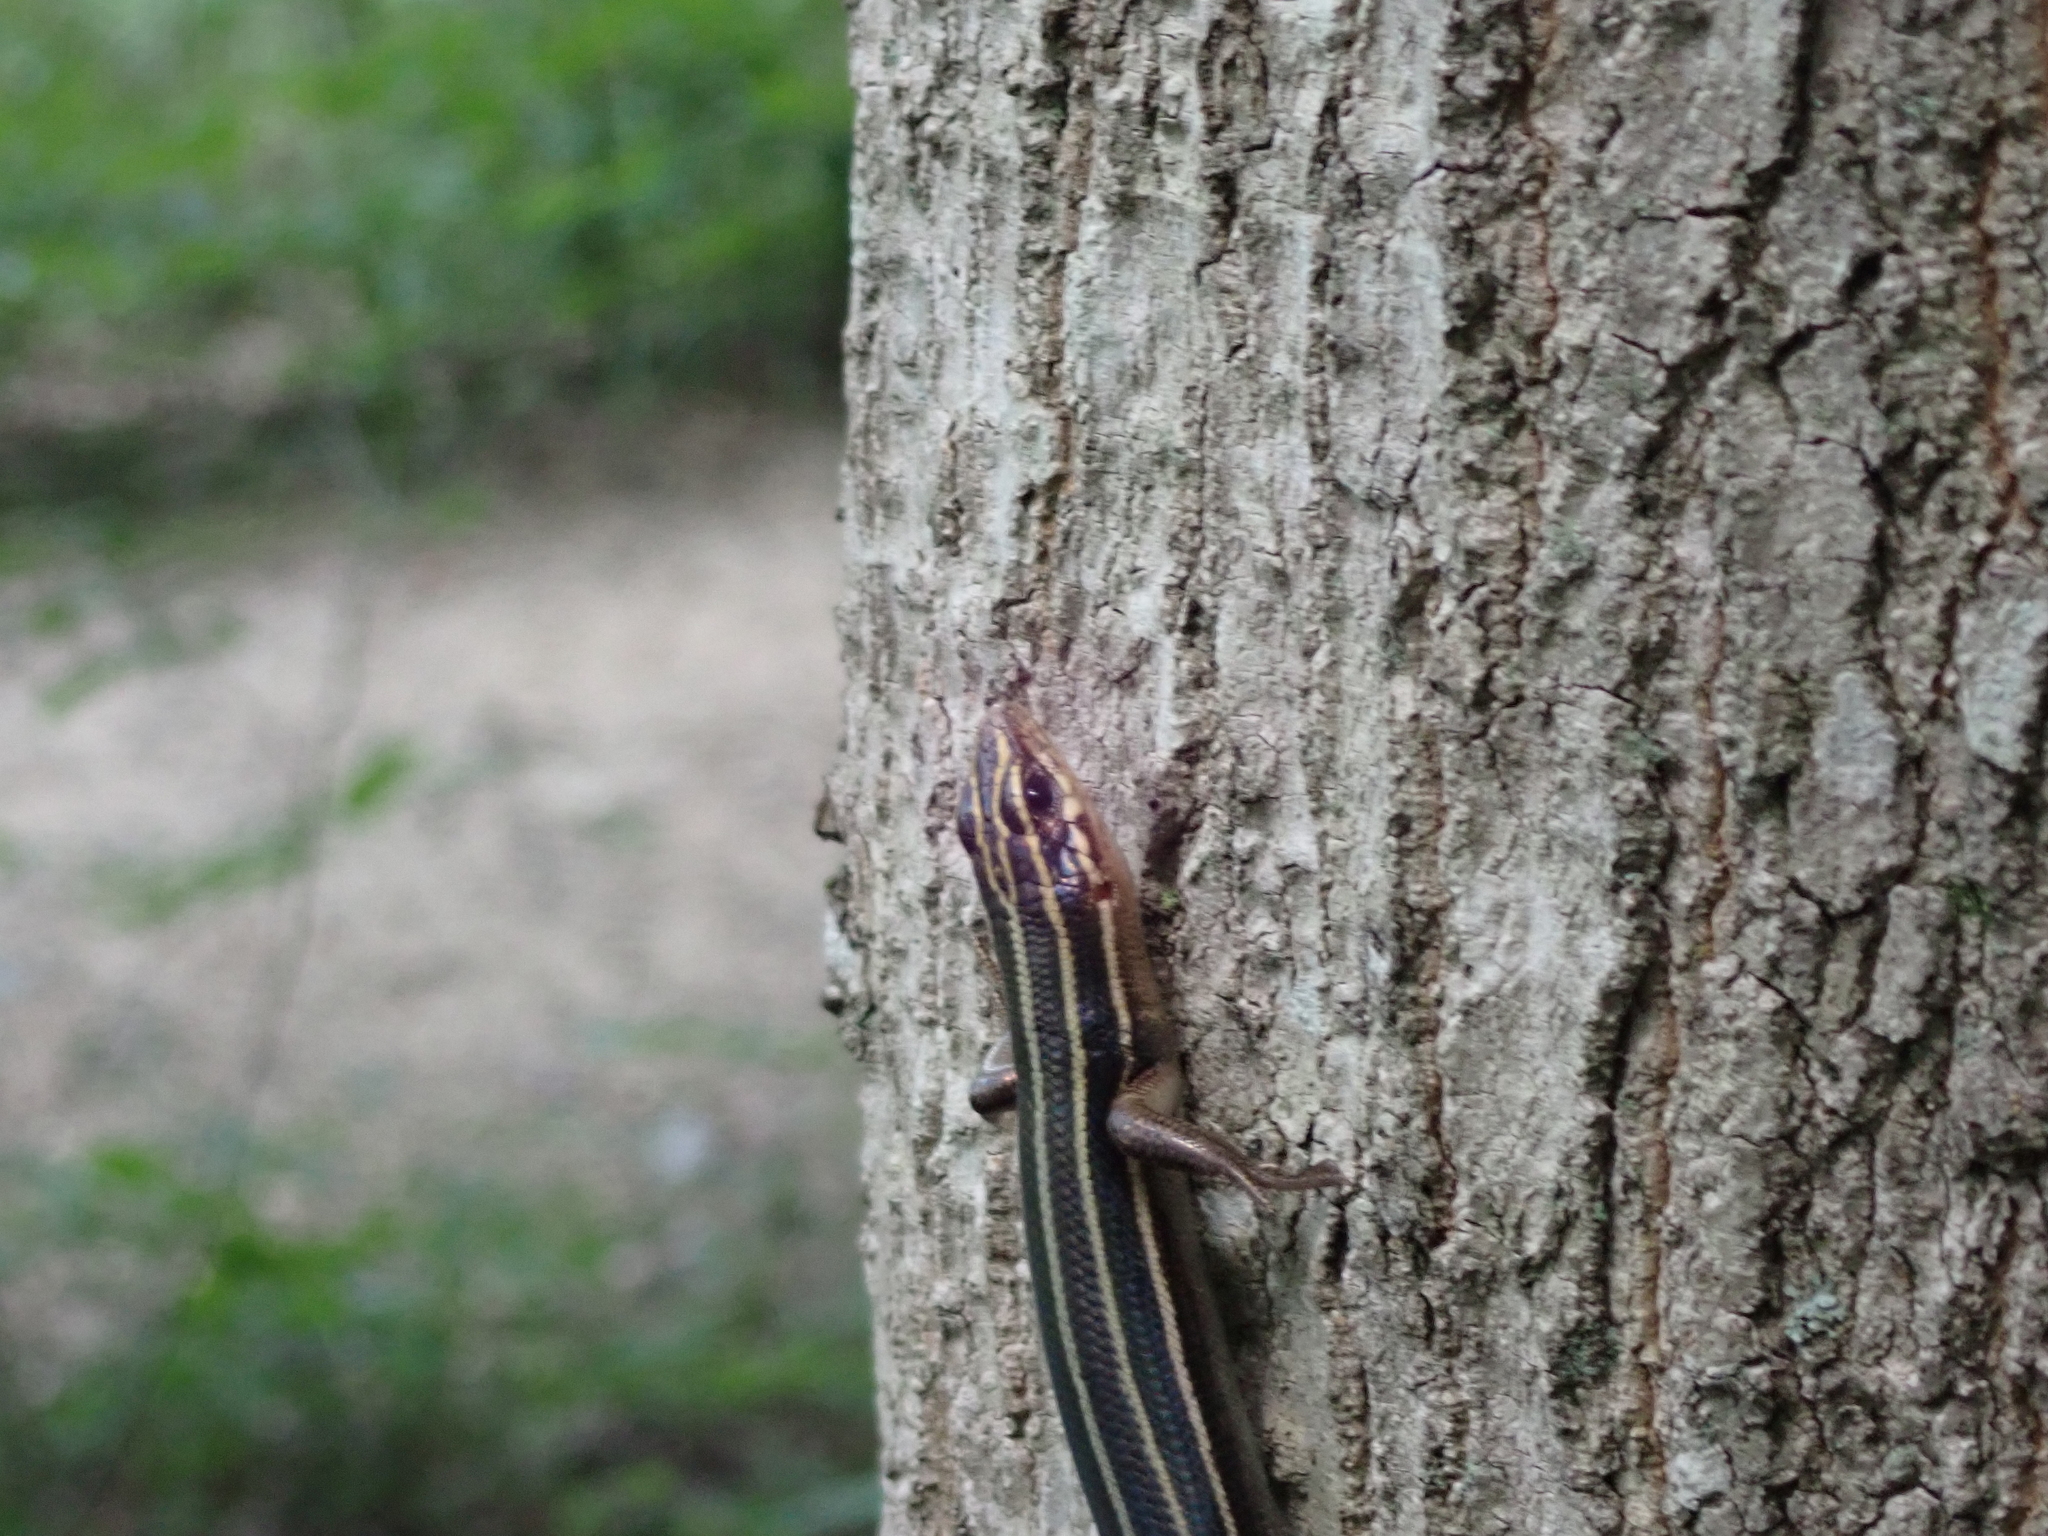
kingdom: Animalia
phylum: Chordata
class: Squamata
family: Scincidae
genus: Plestiodon
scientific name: Plestiodon fasciatus
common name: Five-lined skink
